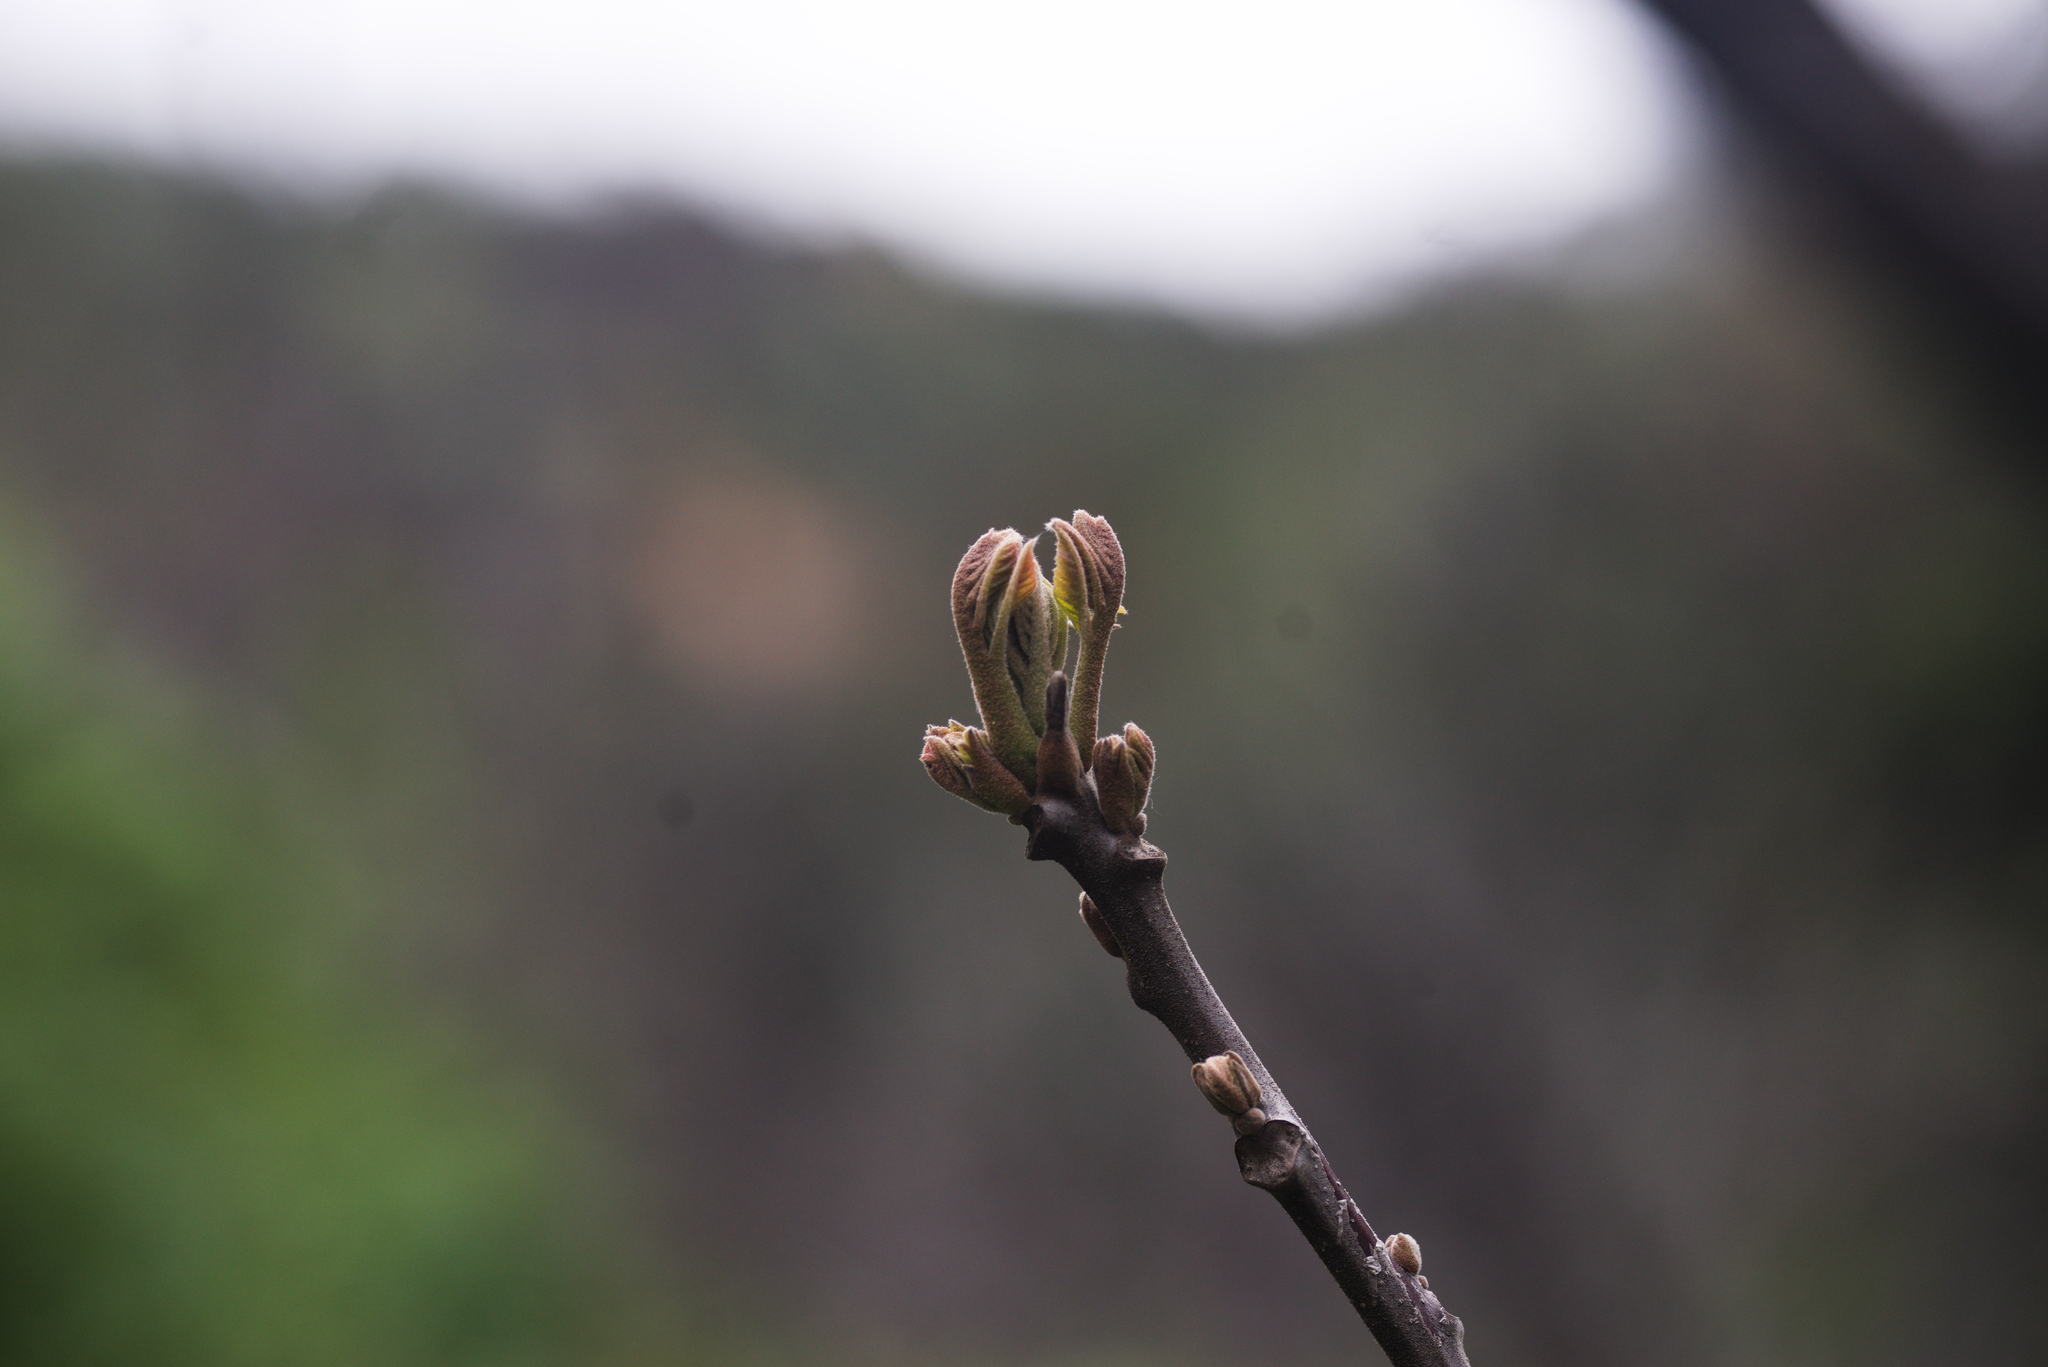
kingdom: Plantae
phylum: Tracheophyta
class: Magnoliopsida
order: Fagales
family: Juglandaceae
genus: Juglans
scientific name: Juglans californica
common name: Southern california black walnut
